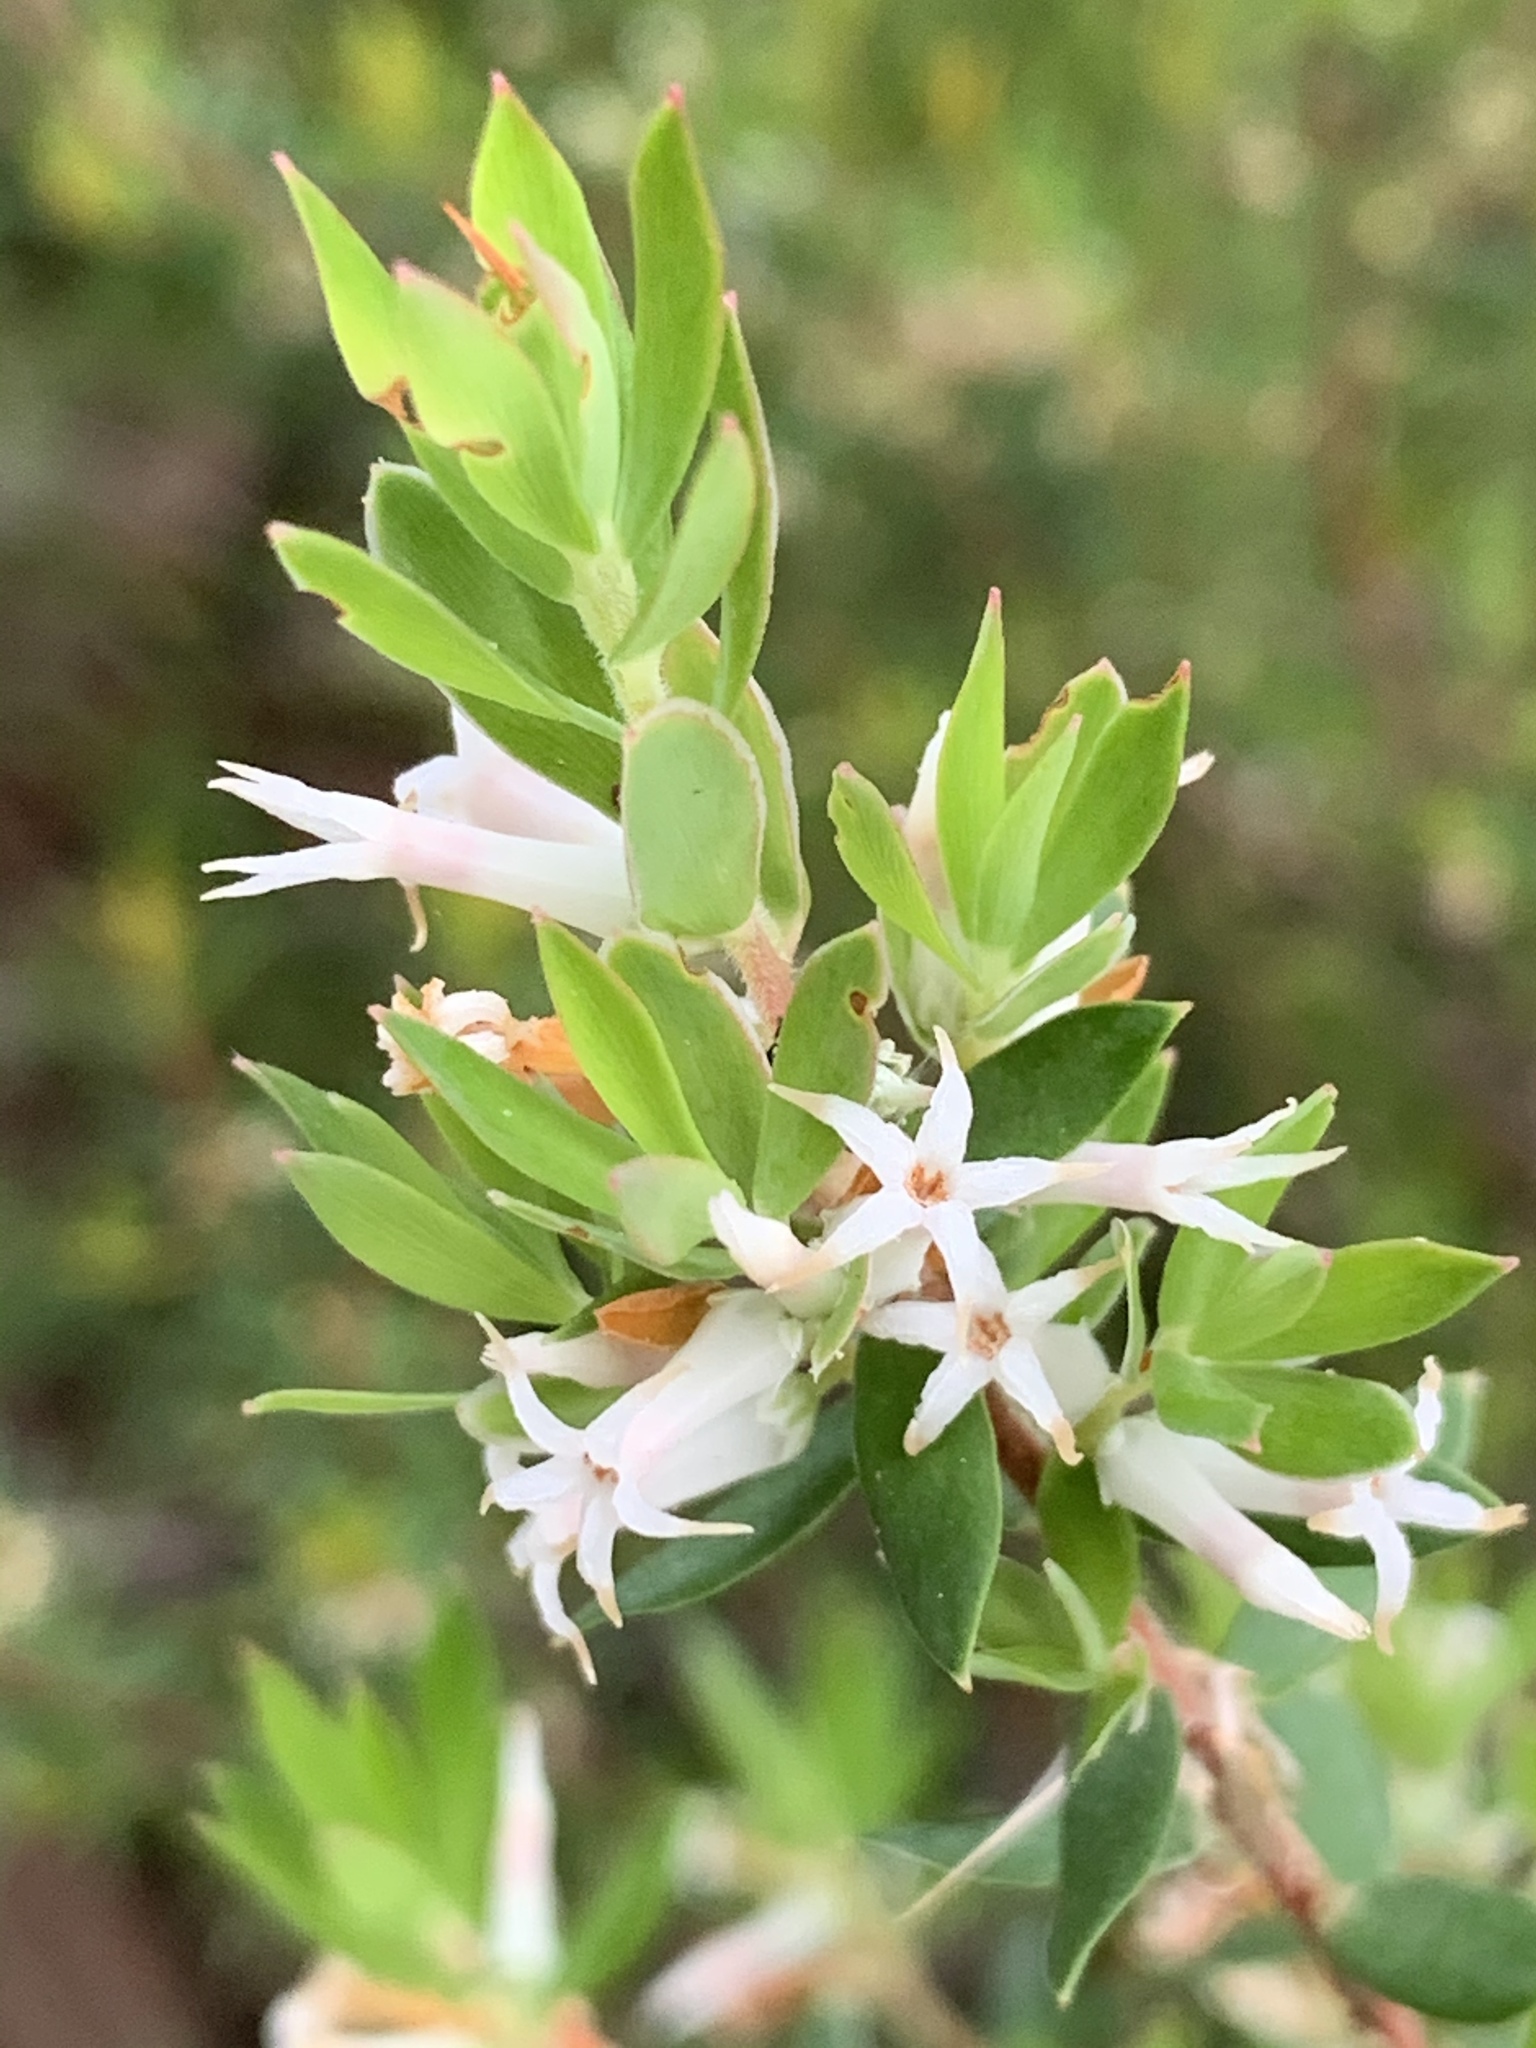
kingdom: Plantae
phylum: Tracheophyta
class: Magnoliopsida
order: Ericales
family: Ericaceae
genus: Brachyloma
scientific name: Brachyloma daphnoides
